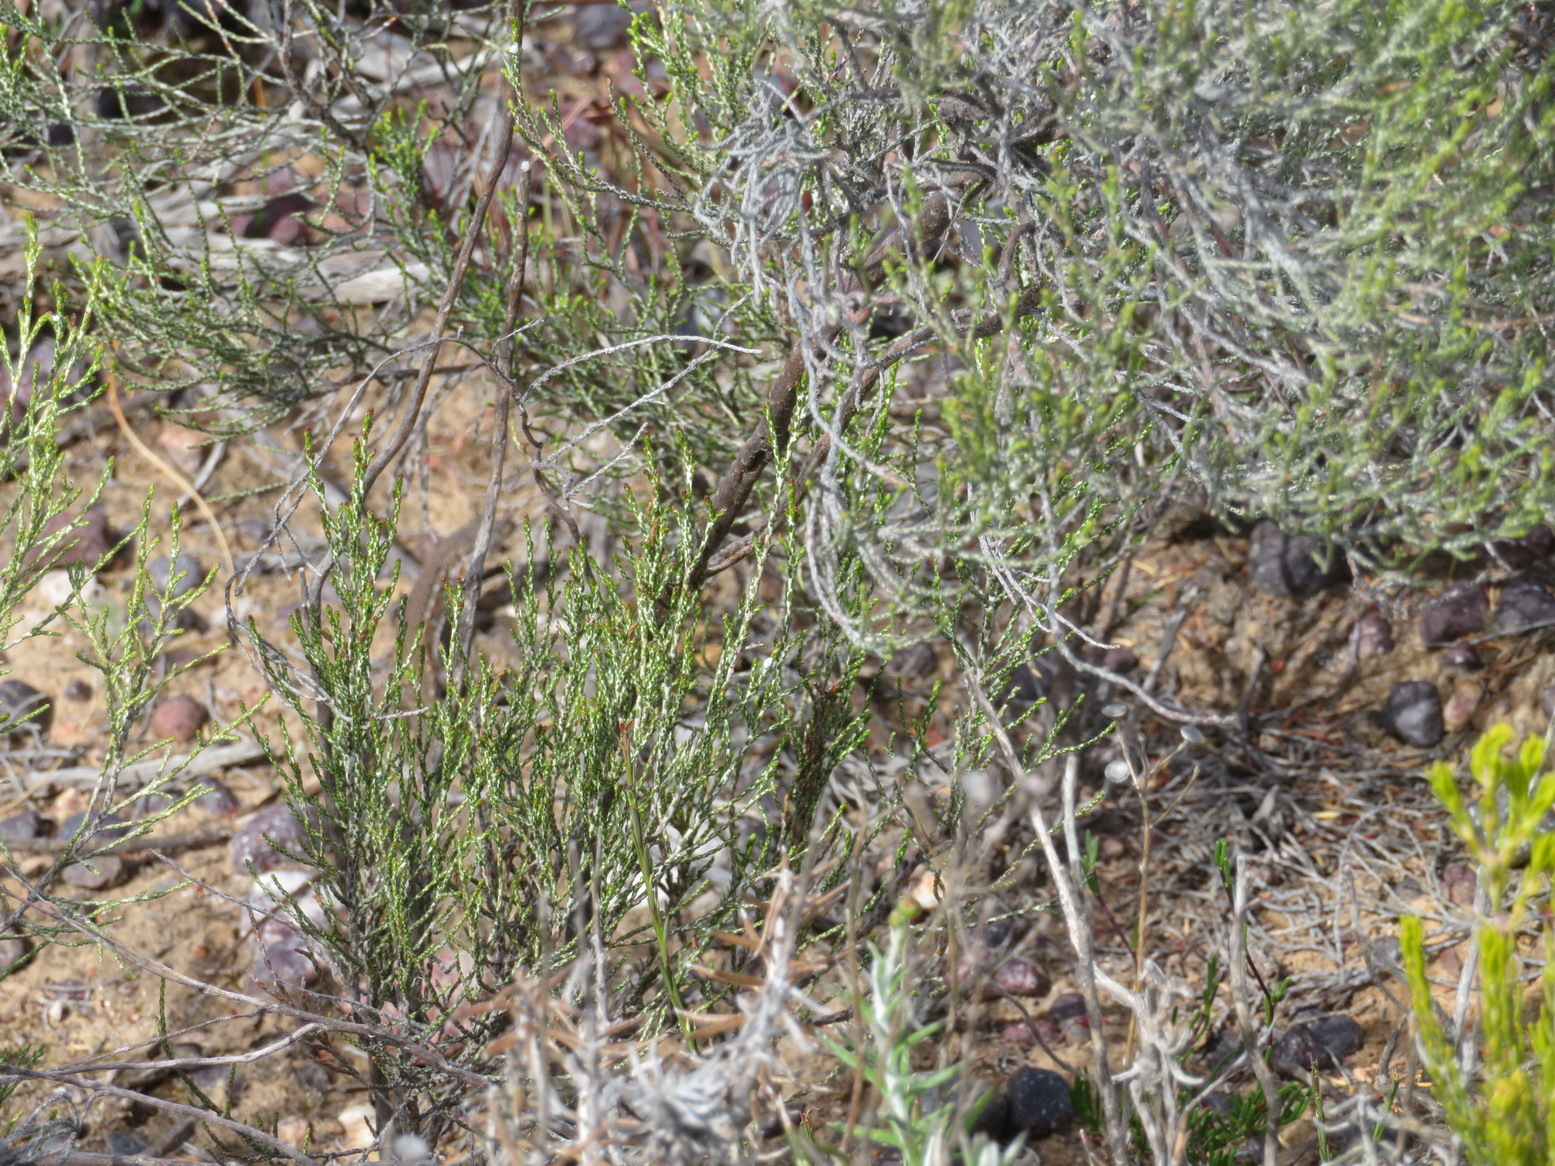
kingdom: Plantae
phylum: Tracheophyta
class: Magnoliopsida
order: Asterales
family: Asteraceae
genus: Dicerothamnus
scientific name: Dicerothamnus rhinocerotis
